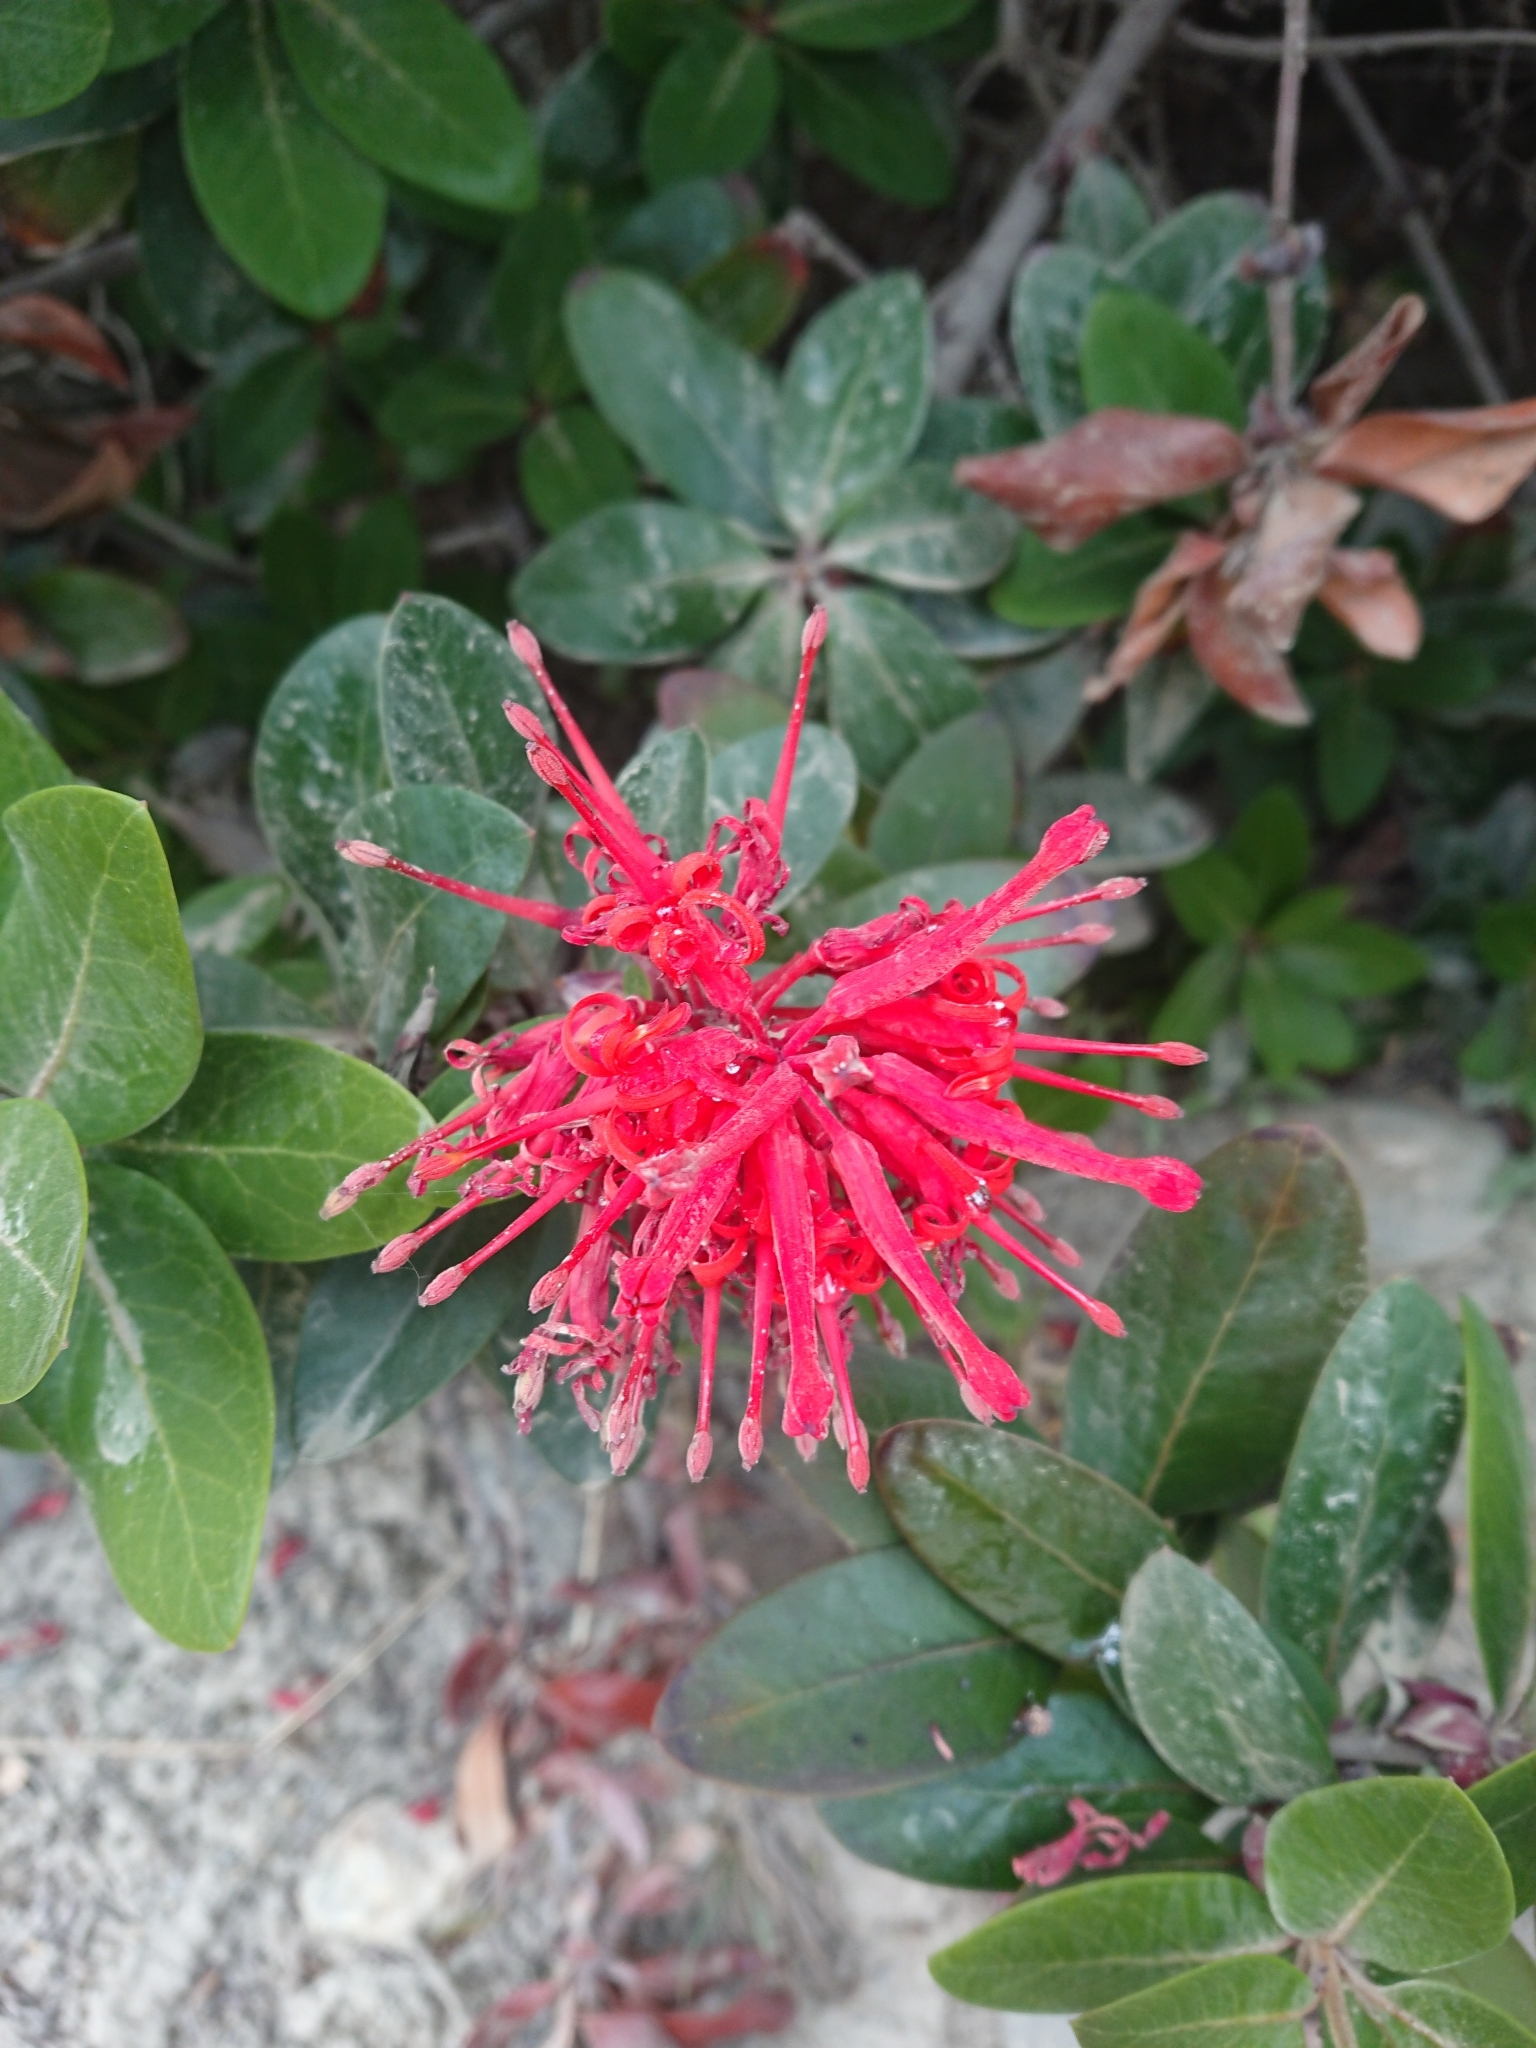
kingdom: Plantae
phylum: Tracheophyta
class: Magnoliopsida
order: Proteales
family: Proteaceae
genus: Embothrium
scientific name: Embothrium coccineum
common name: Chilean firebush
